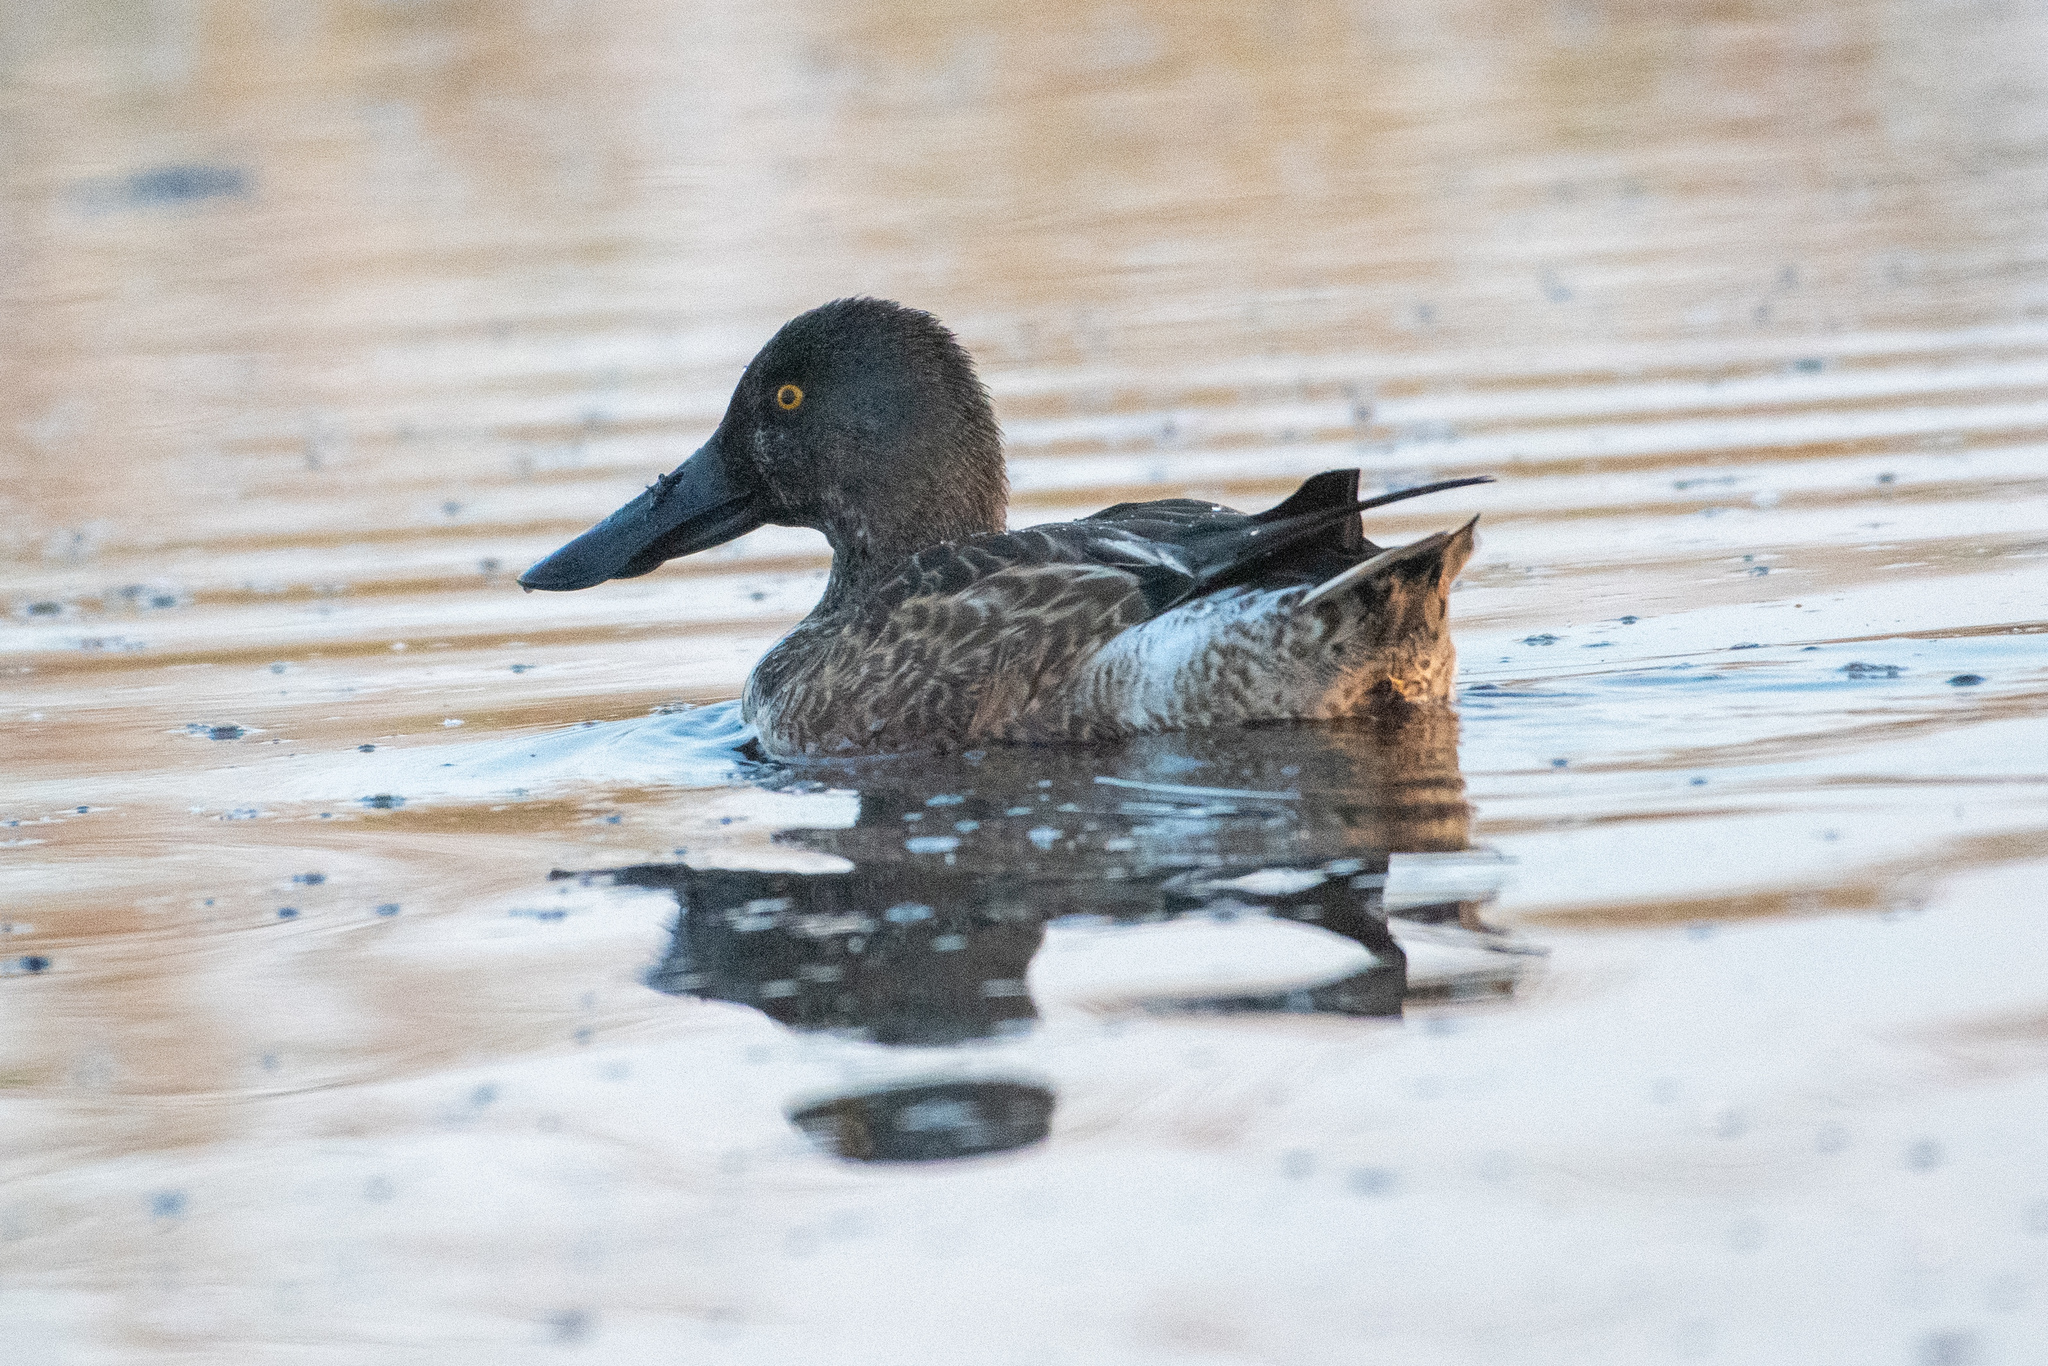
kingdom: Animalia
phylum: Chordata
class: Aves
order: Anseriformes
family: Anatidae
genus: Spatula
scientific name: Spatula clypeata
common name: Northern shoveler
